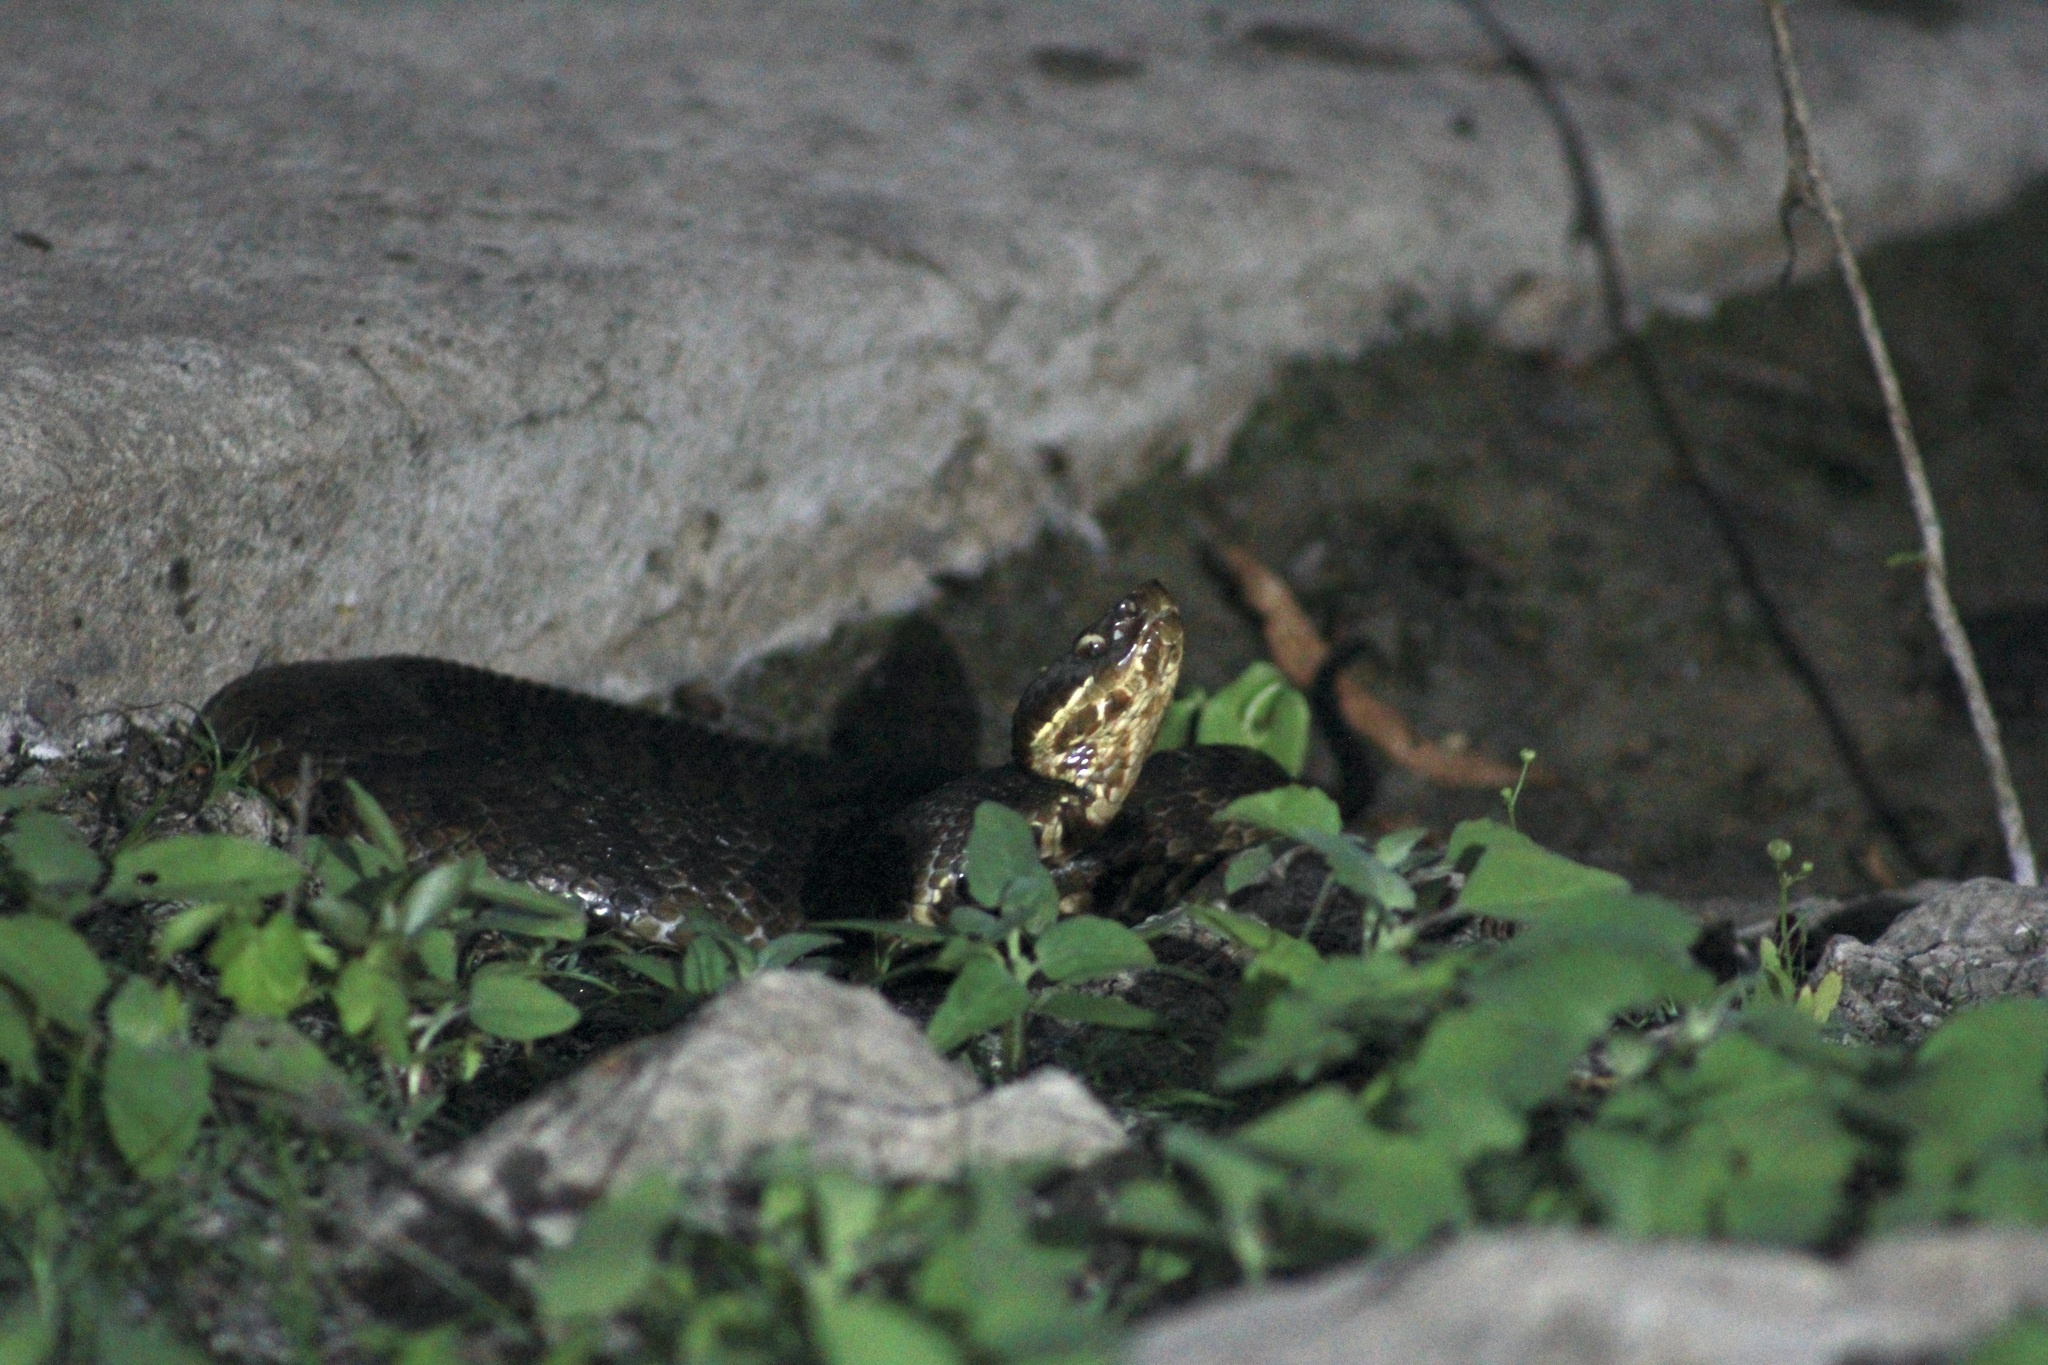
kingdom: Animalia
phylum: Chordata
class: Squamata
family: Viperidae
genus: Agkistrodon
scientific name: Agkistrodon piscivorus
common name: Cottonmouth
